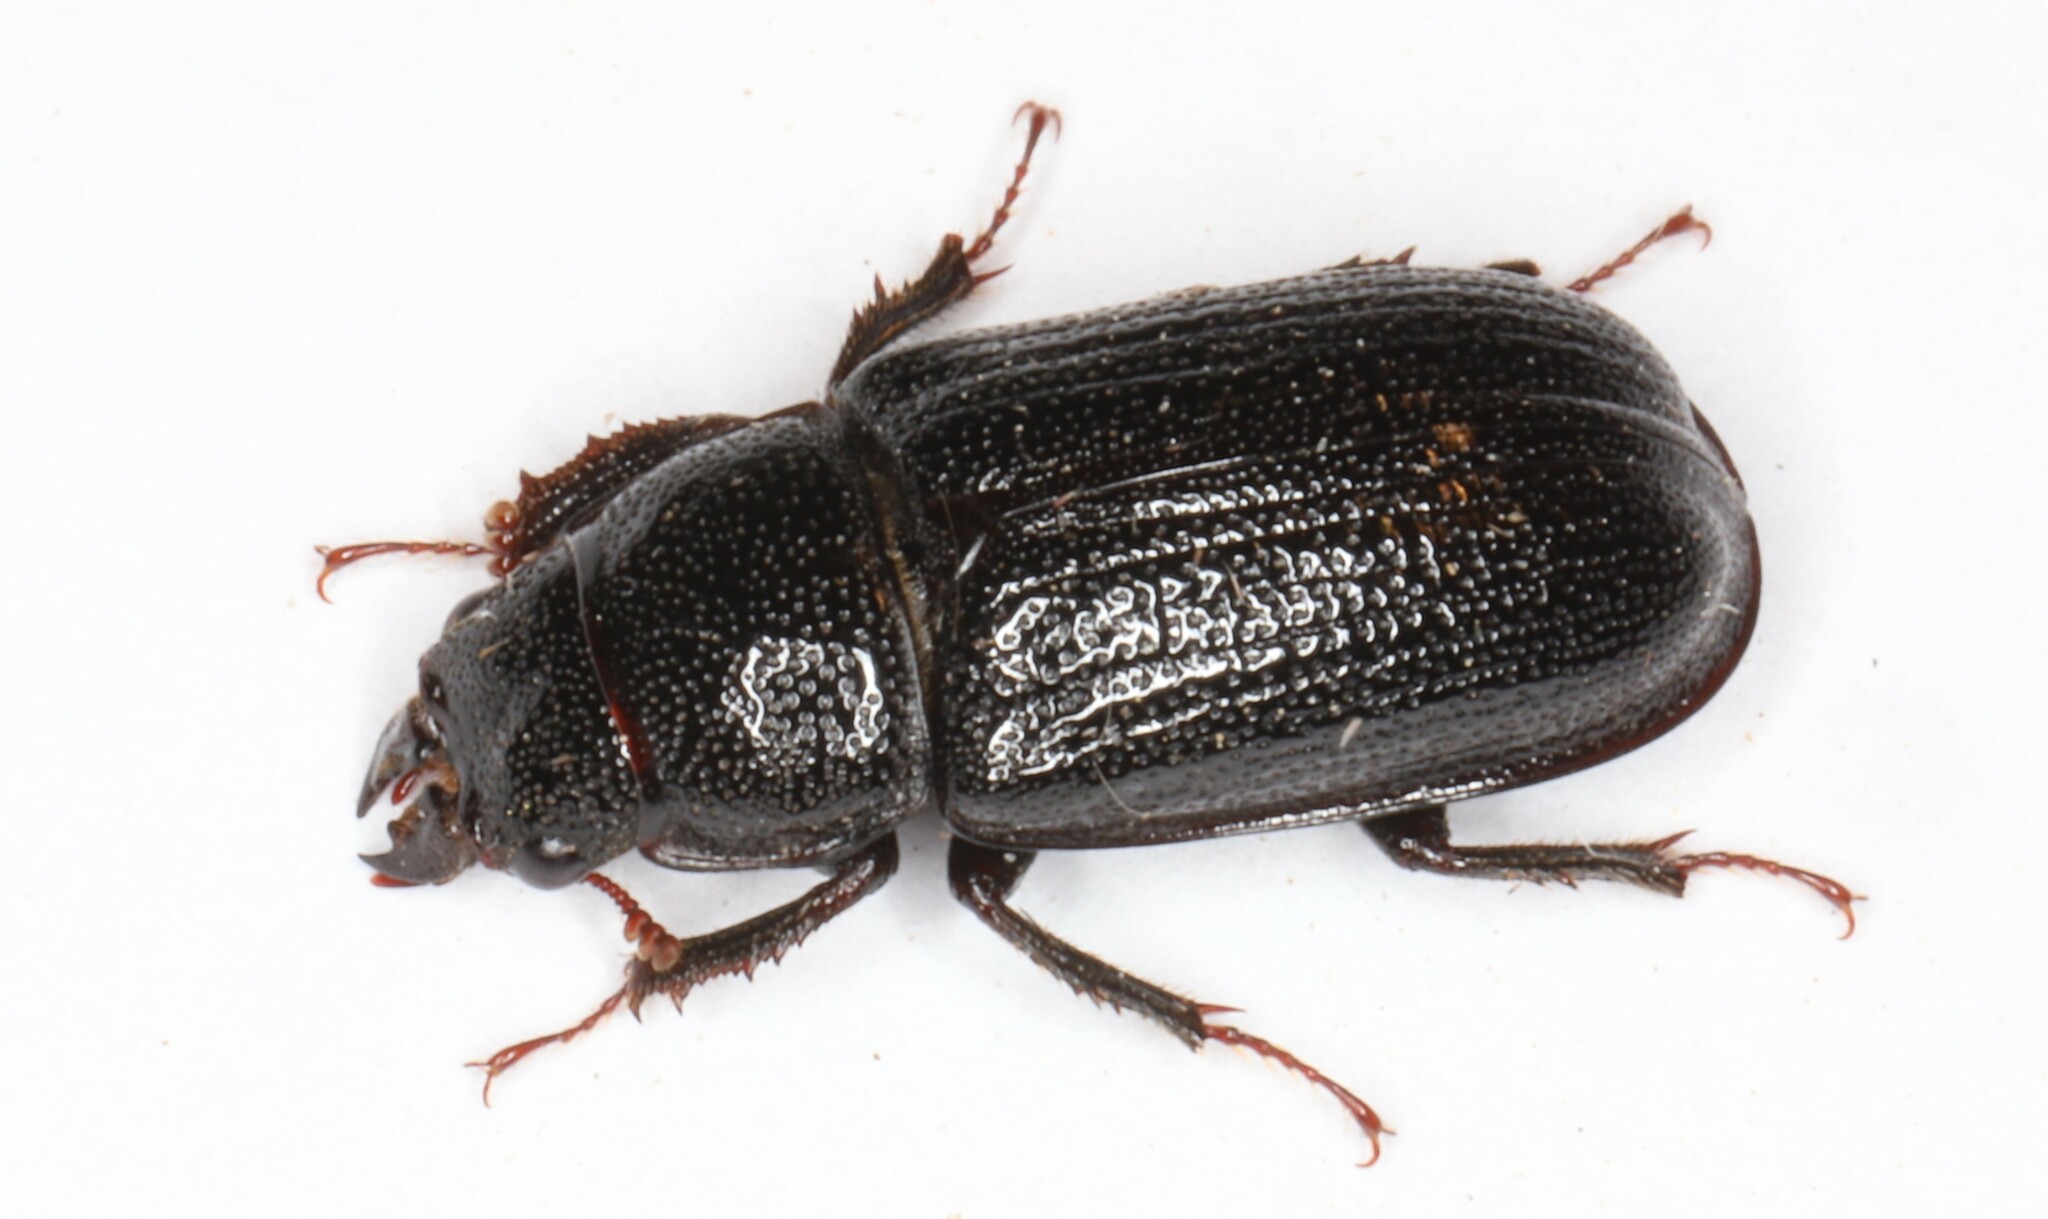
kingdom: Animalia
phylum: Arthropoda
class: Insecta
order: Coleoptera
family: Lucanidae
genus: Ceruchus
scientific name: Ceruchus piceus
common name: Red-rot decay stag beetle
